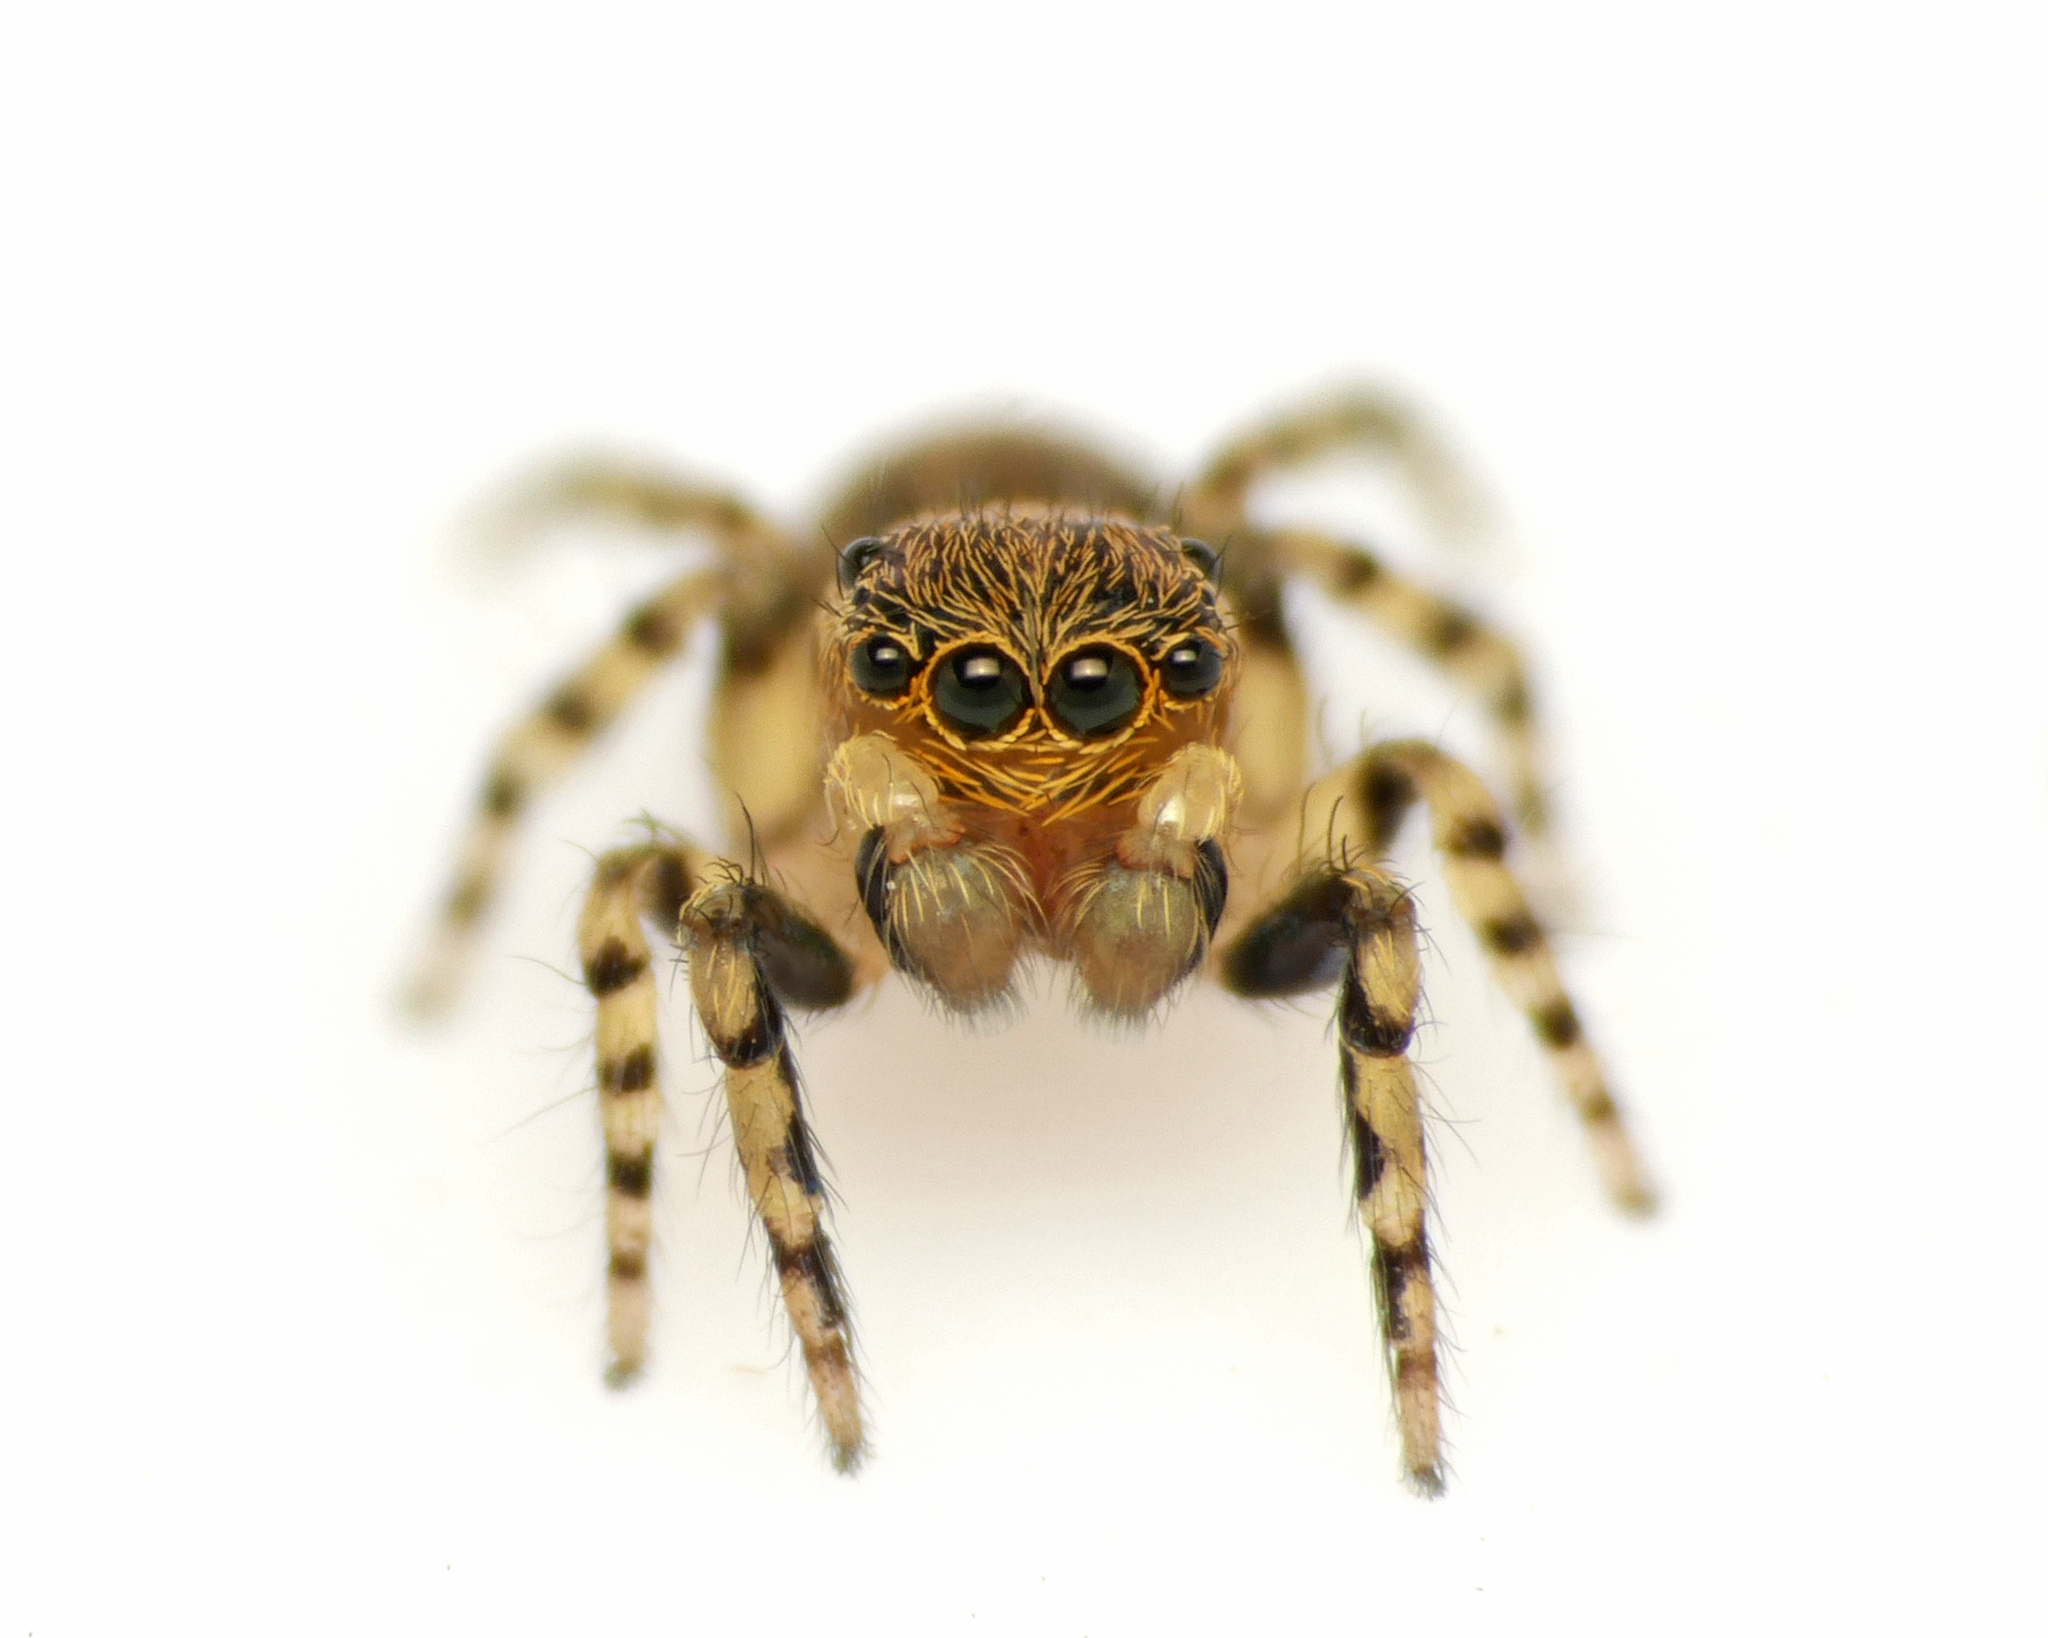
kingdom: Animalia
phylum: Arthropoda
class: Arachnida
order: Araneae
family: Salticidae
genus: Talavera
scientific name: Talavera aequipes
